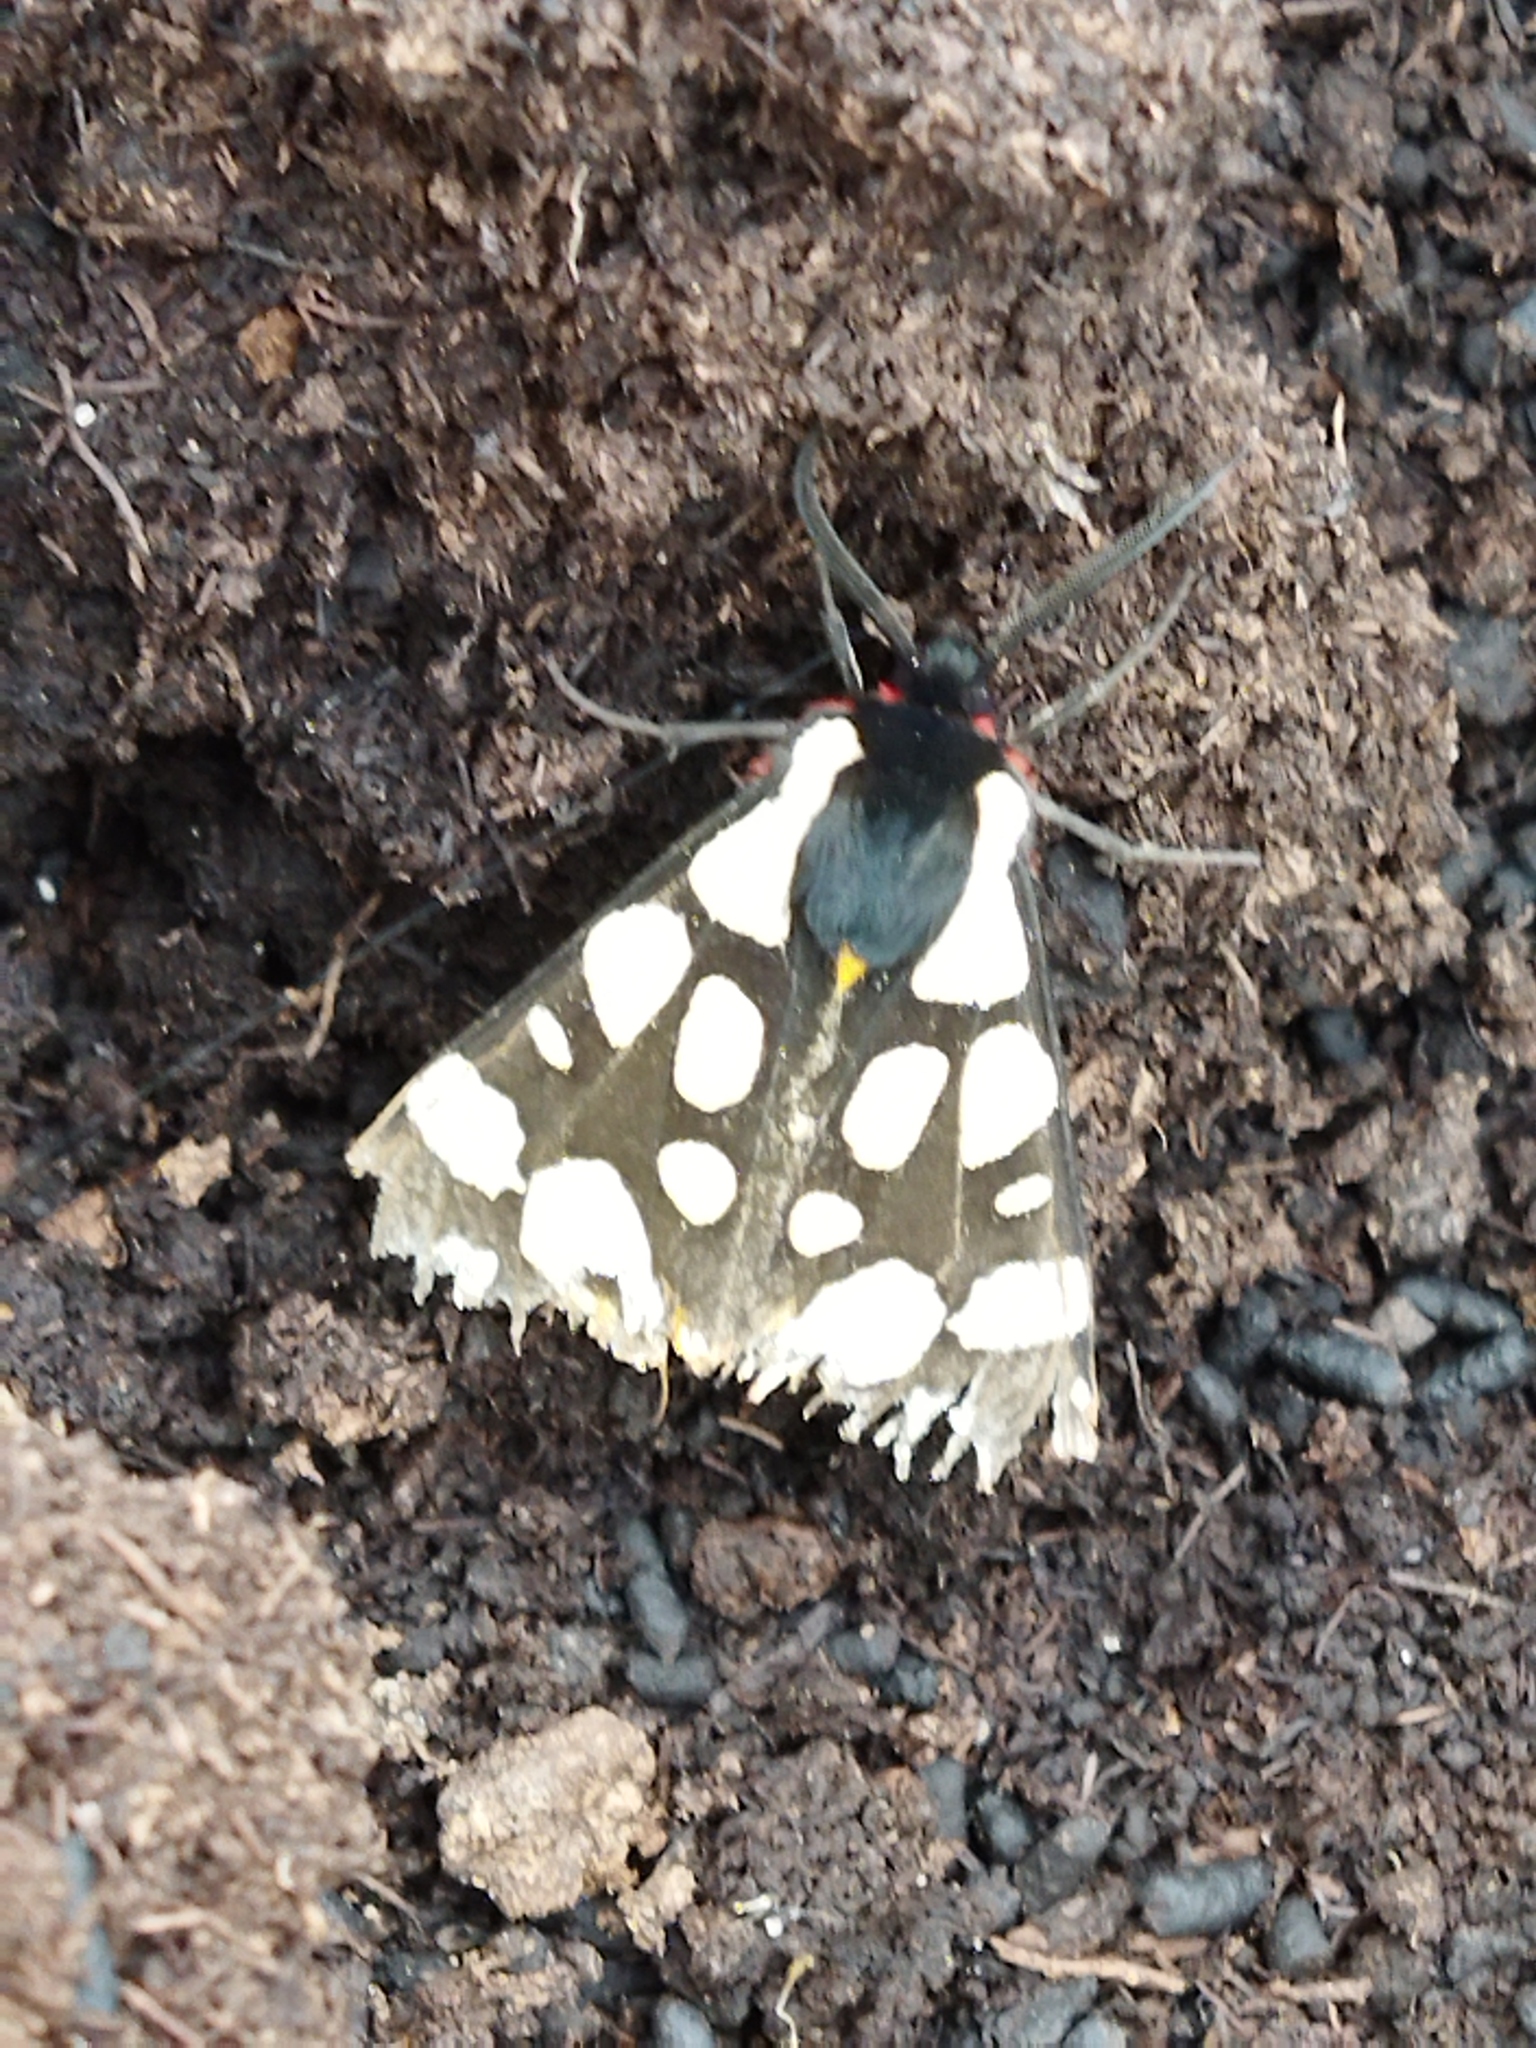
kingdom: Animalia
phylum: Arthropoda
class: Insecta
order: Lepidoptera
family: Erebidae
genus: Epicallia
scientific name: Epicallia villica
